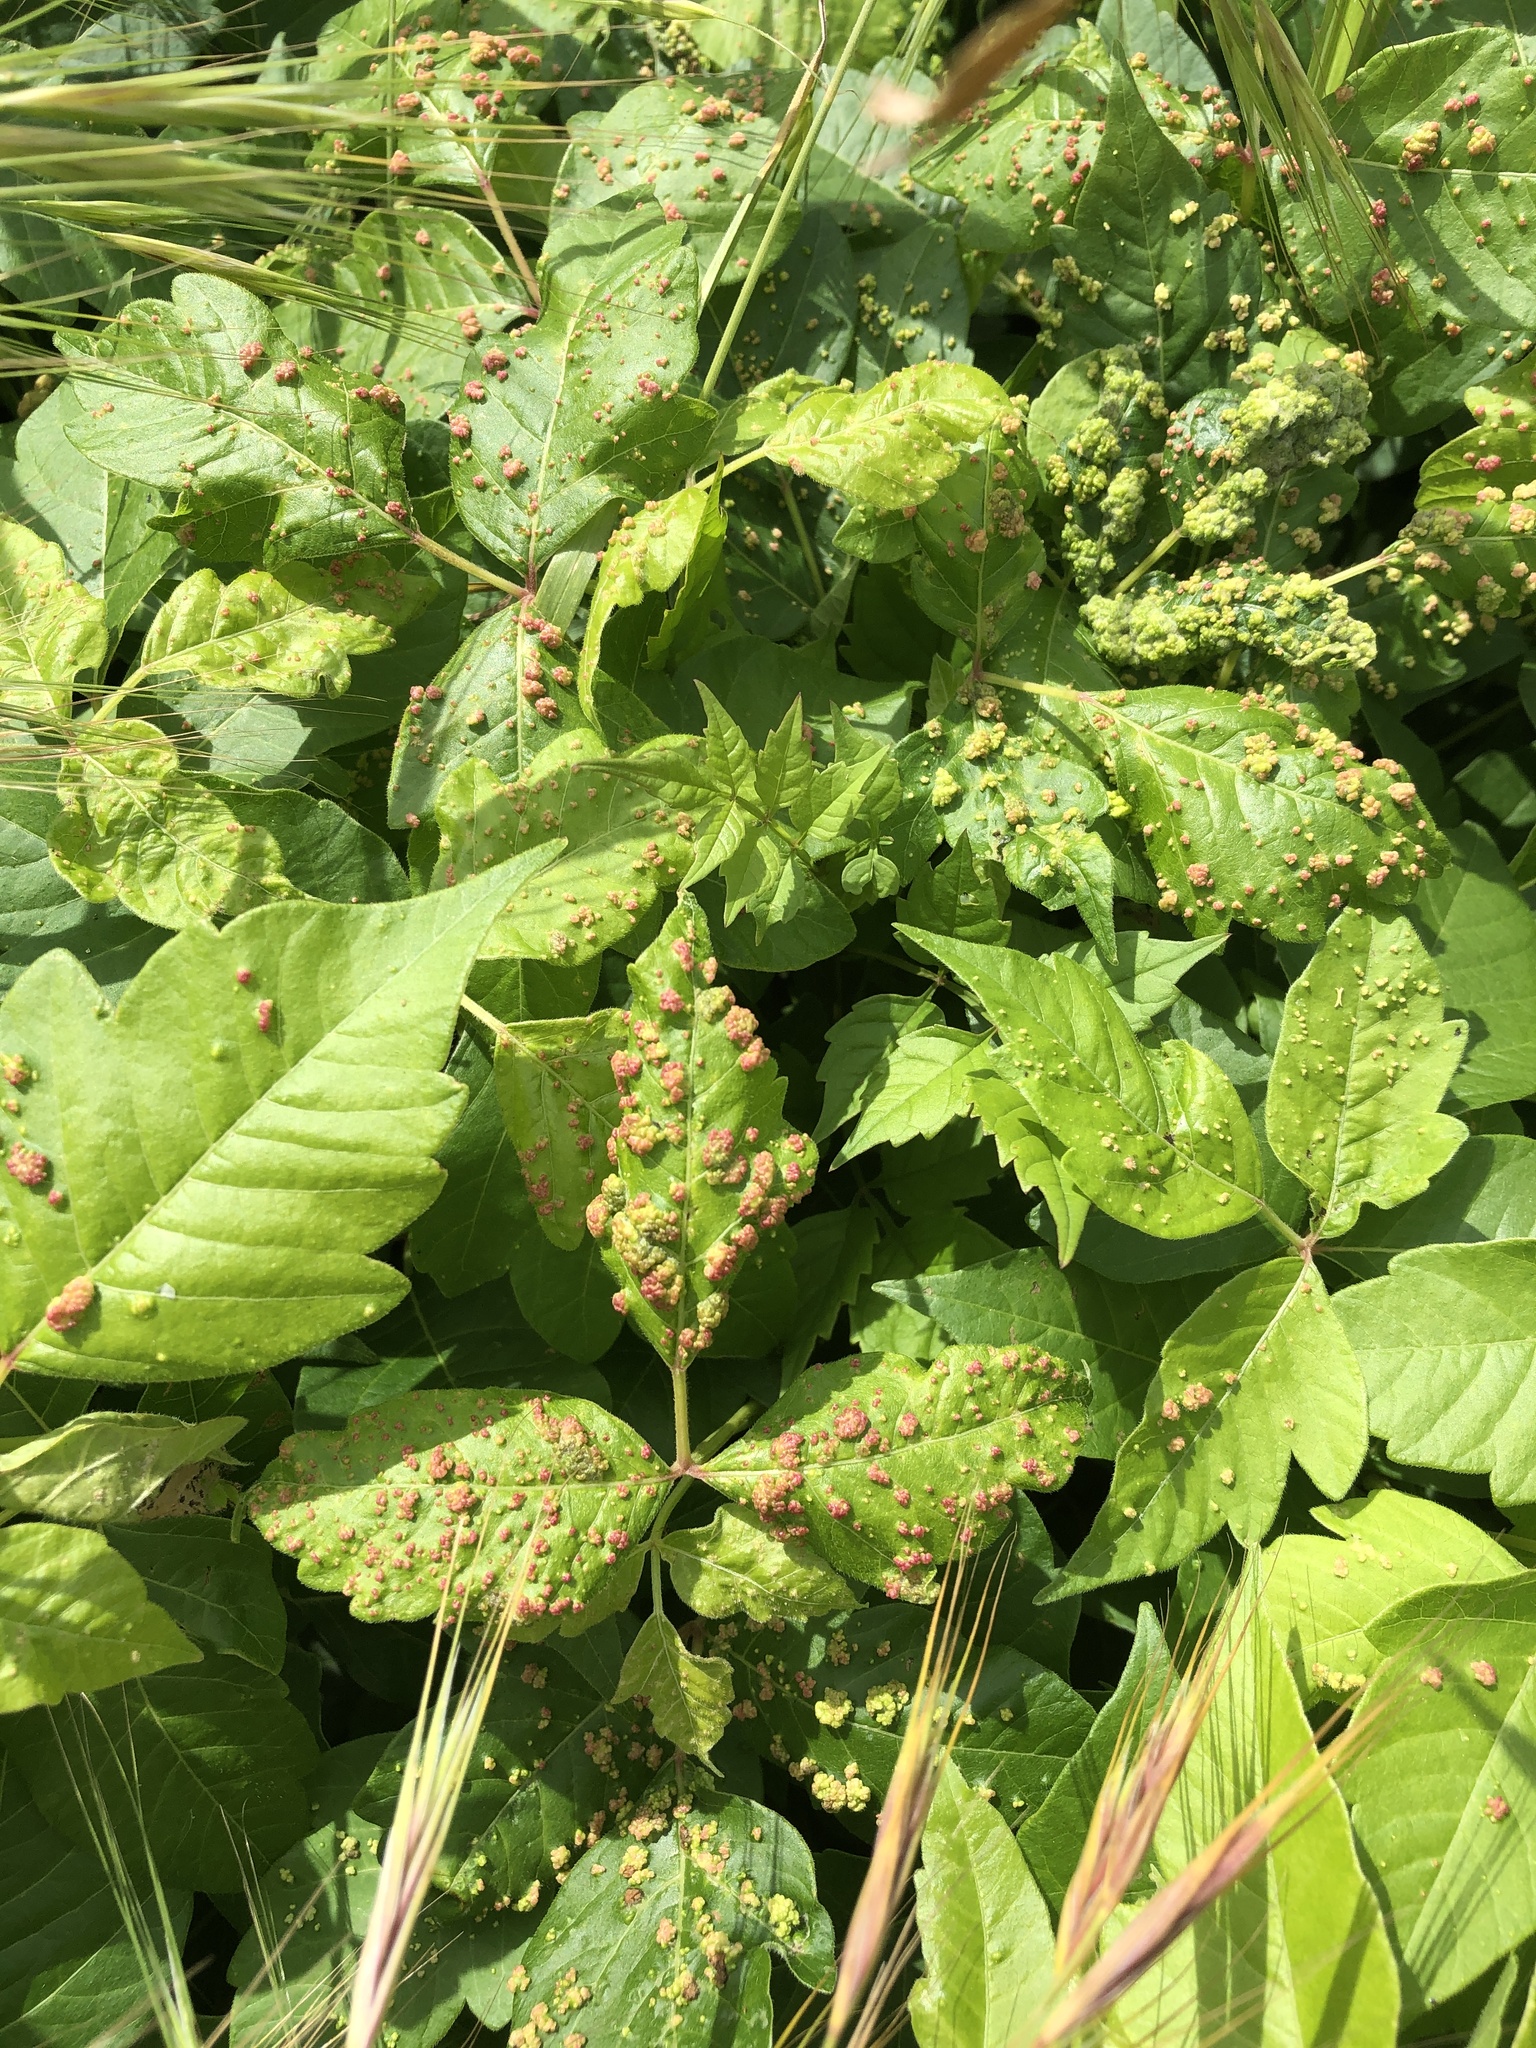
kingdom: Animalia
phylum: Arthropoda
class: Arachnida
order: Trombidiformes
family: Eriophyidae
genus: Aculops
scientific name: Aculops
